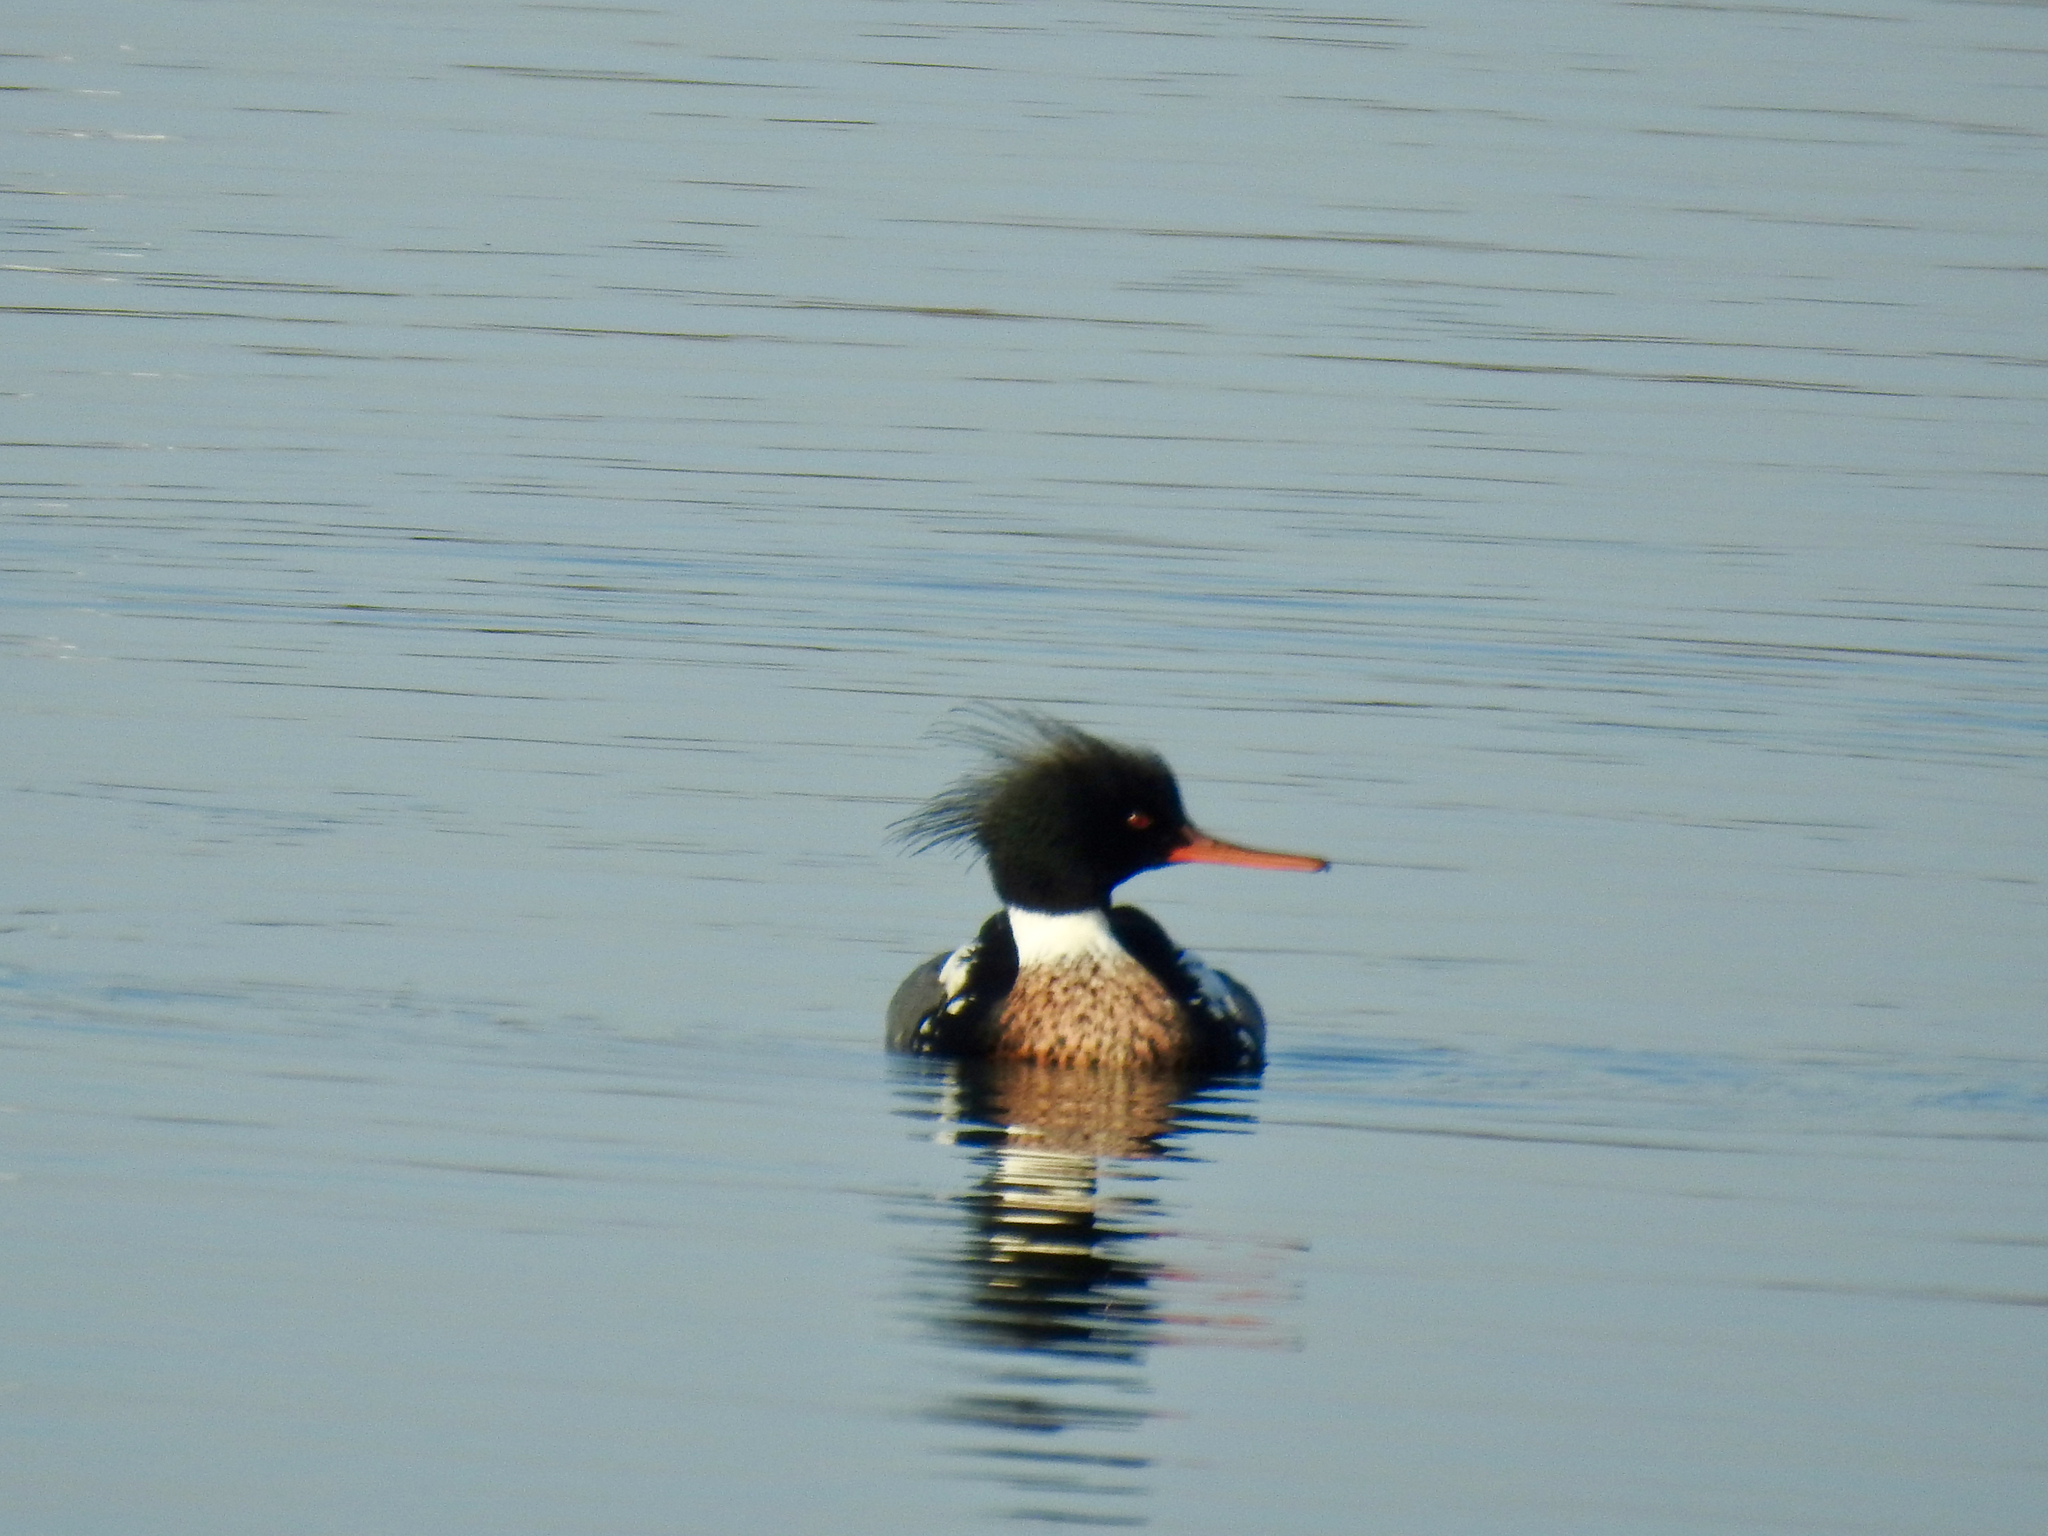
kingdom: Animalia
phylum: Chordata
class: Aves
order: Anseriformes
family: Anatidae
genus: Mergus
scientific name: Mergus serrator
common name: Red-breasted merganser
